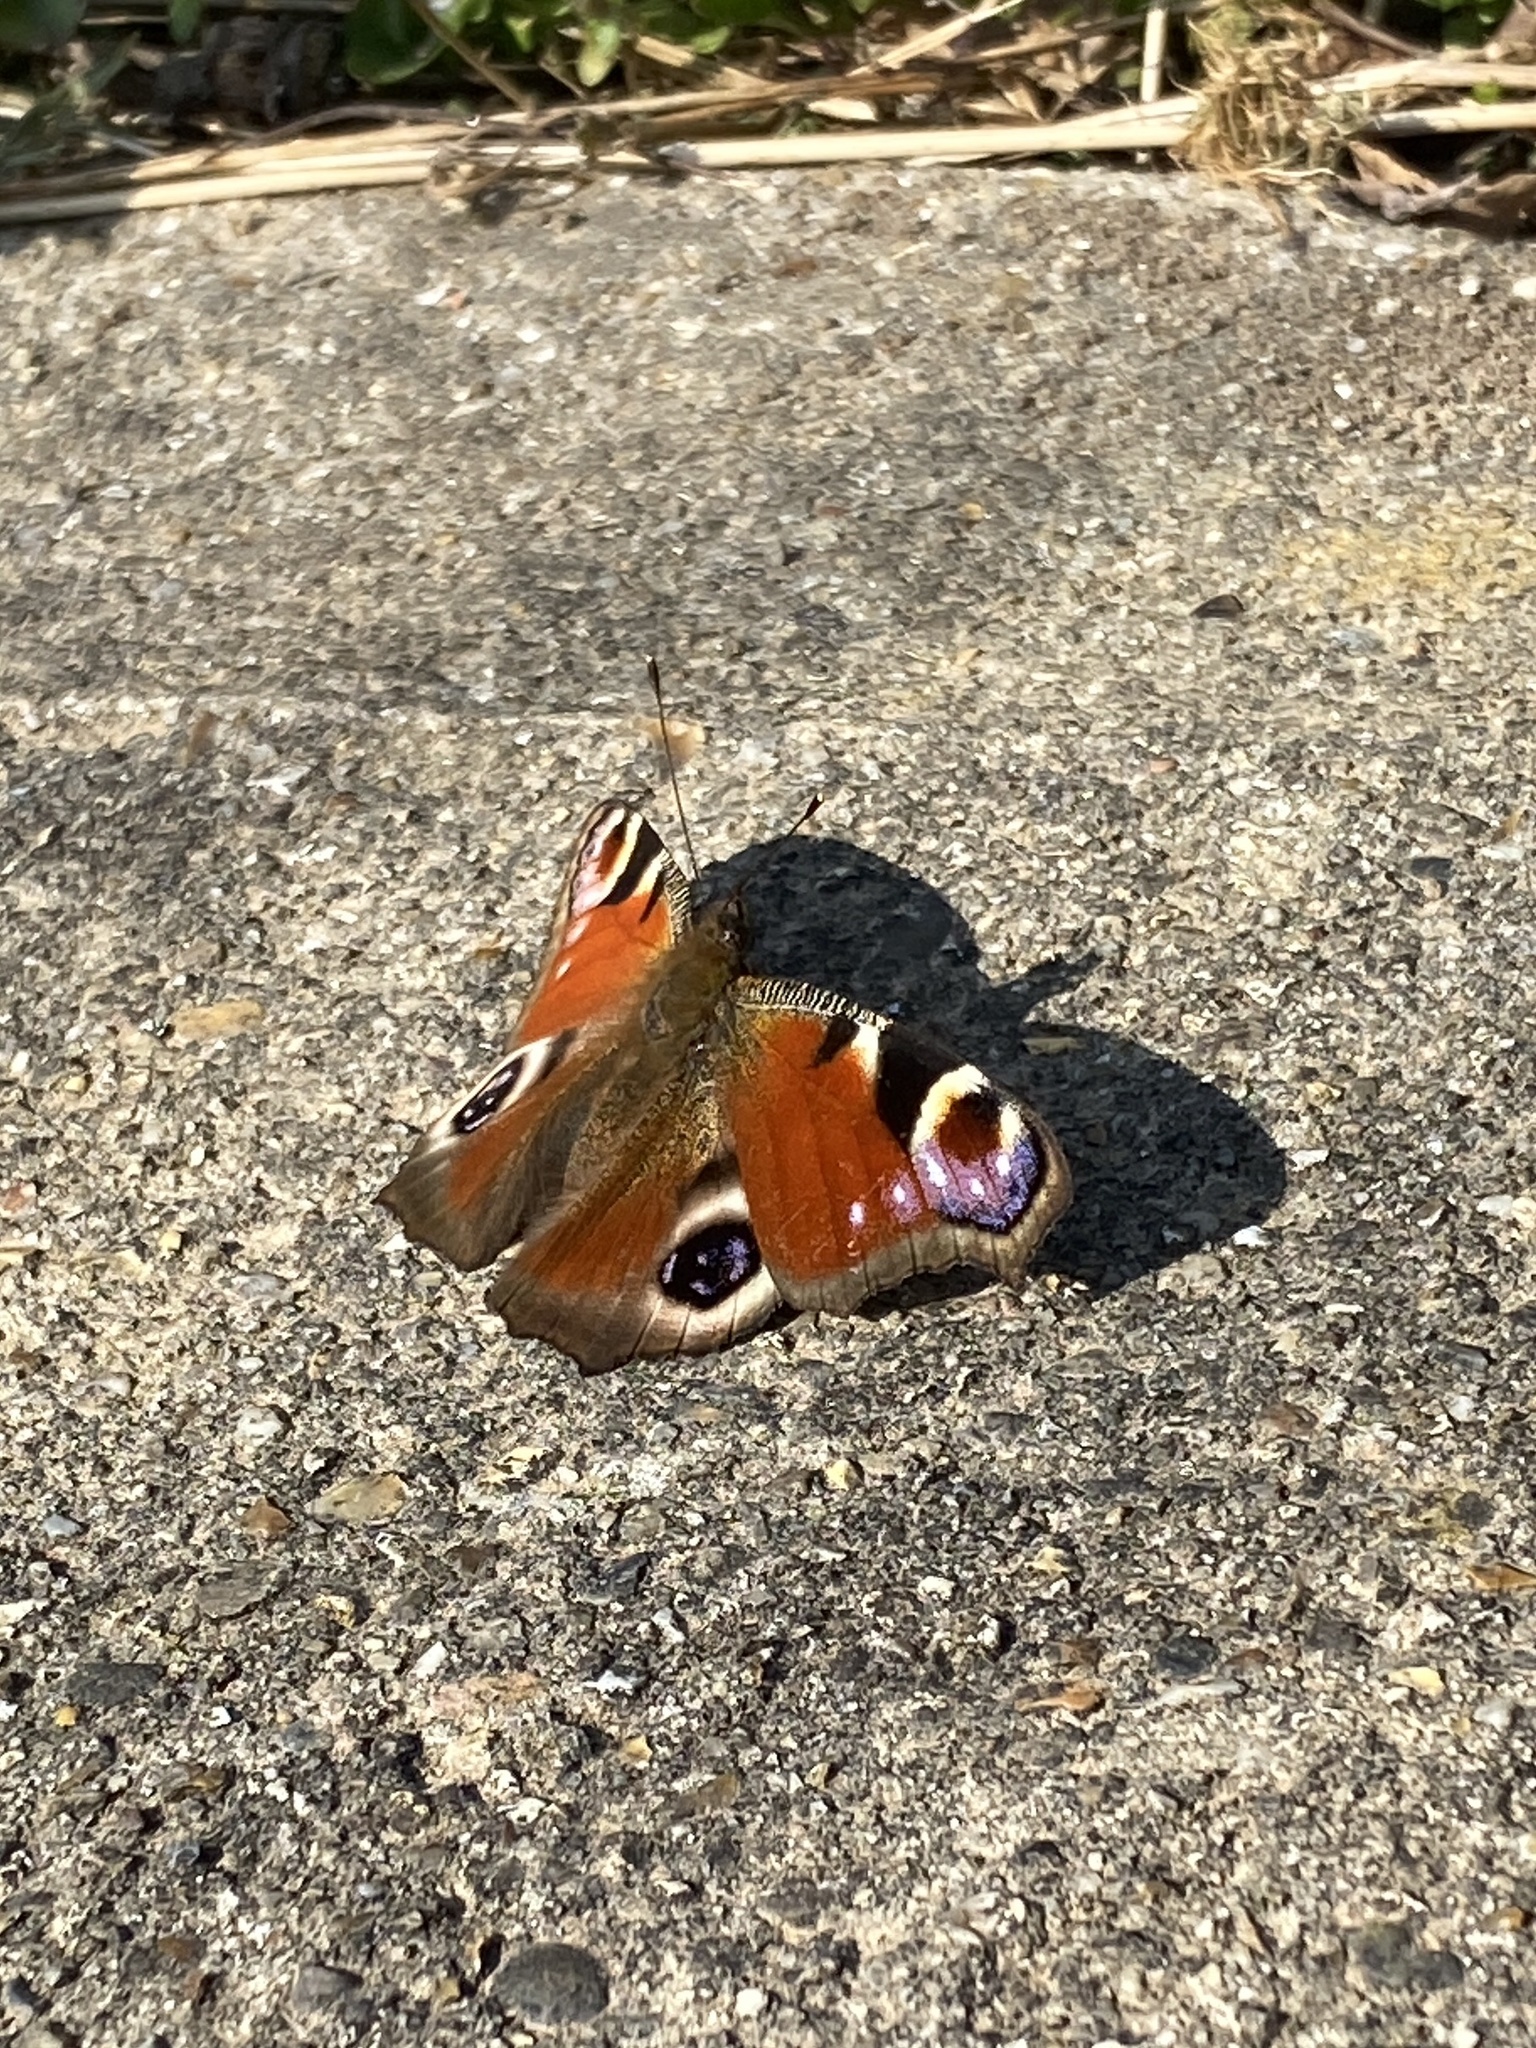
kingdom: Animalia
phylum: Arthropoda
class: Insecta
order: Lepidoptera
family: Nymphalidae
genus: Aglais
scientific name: Aglais io
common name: Peacock
